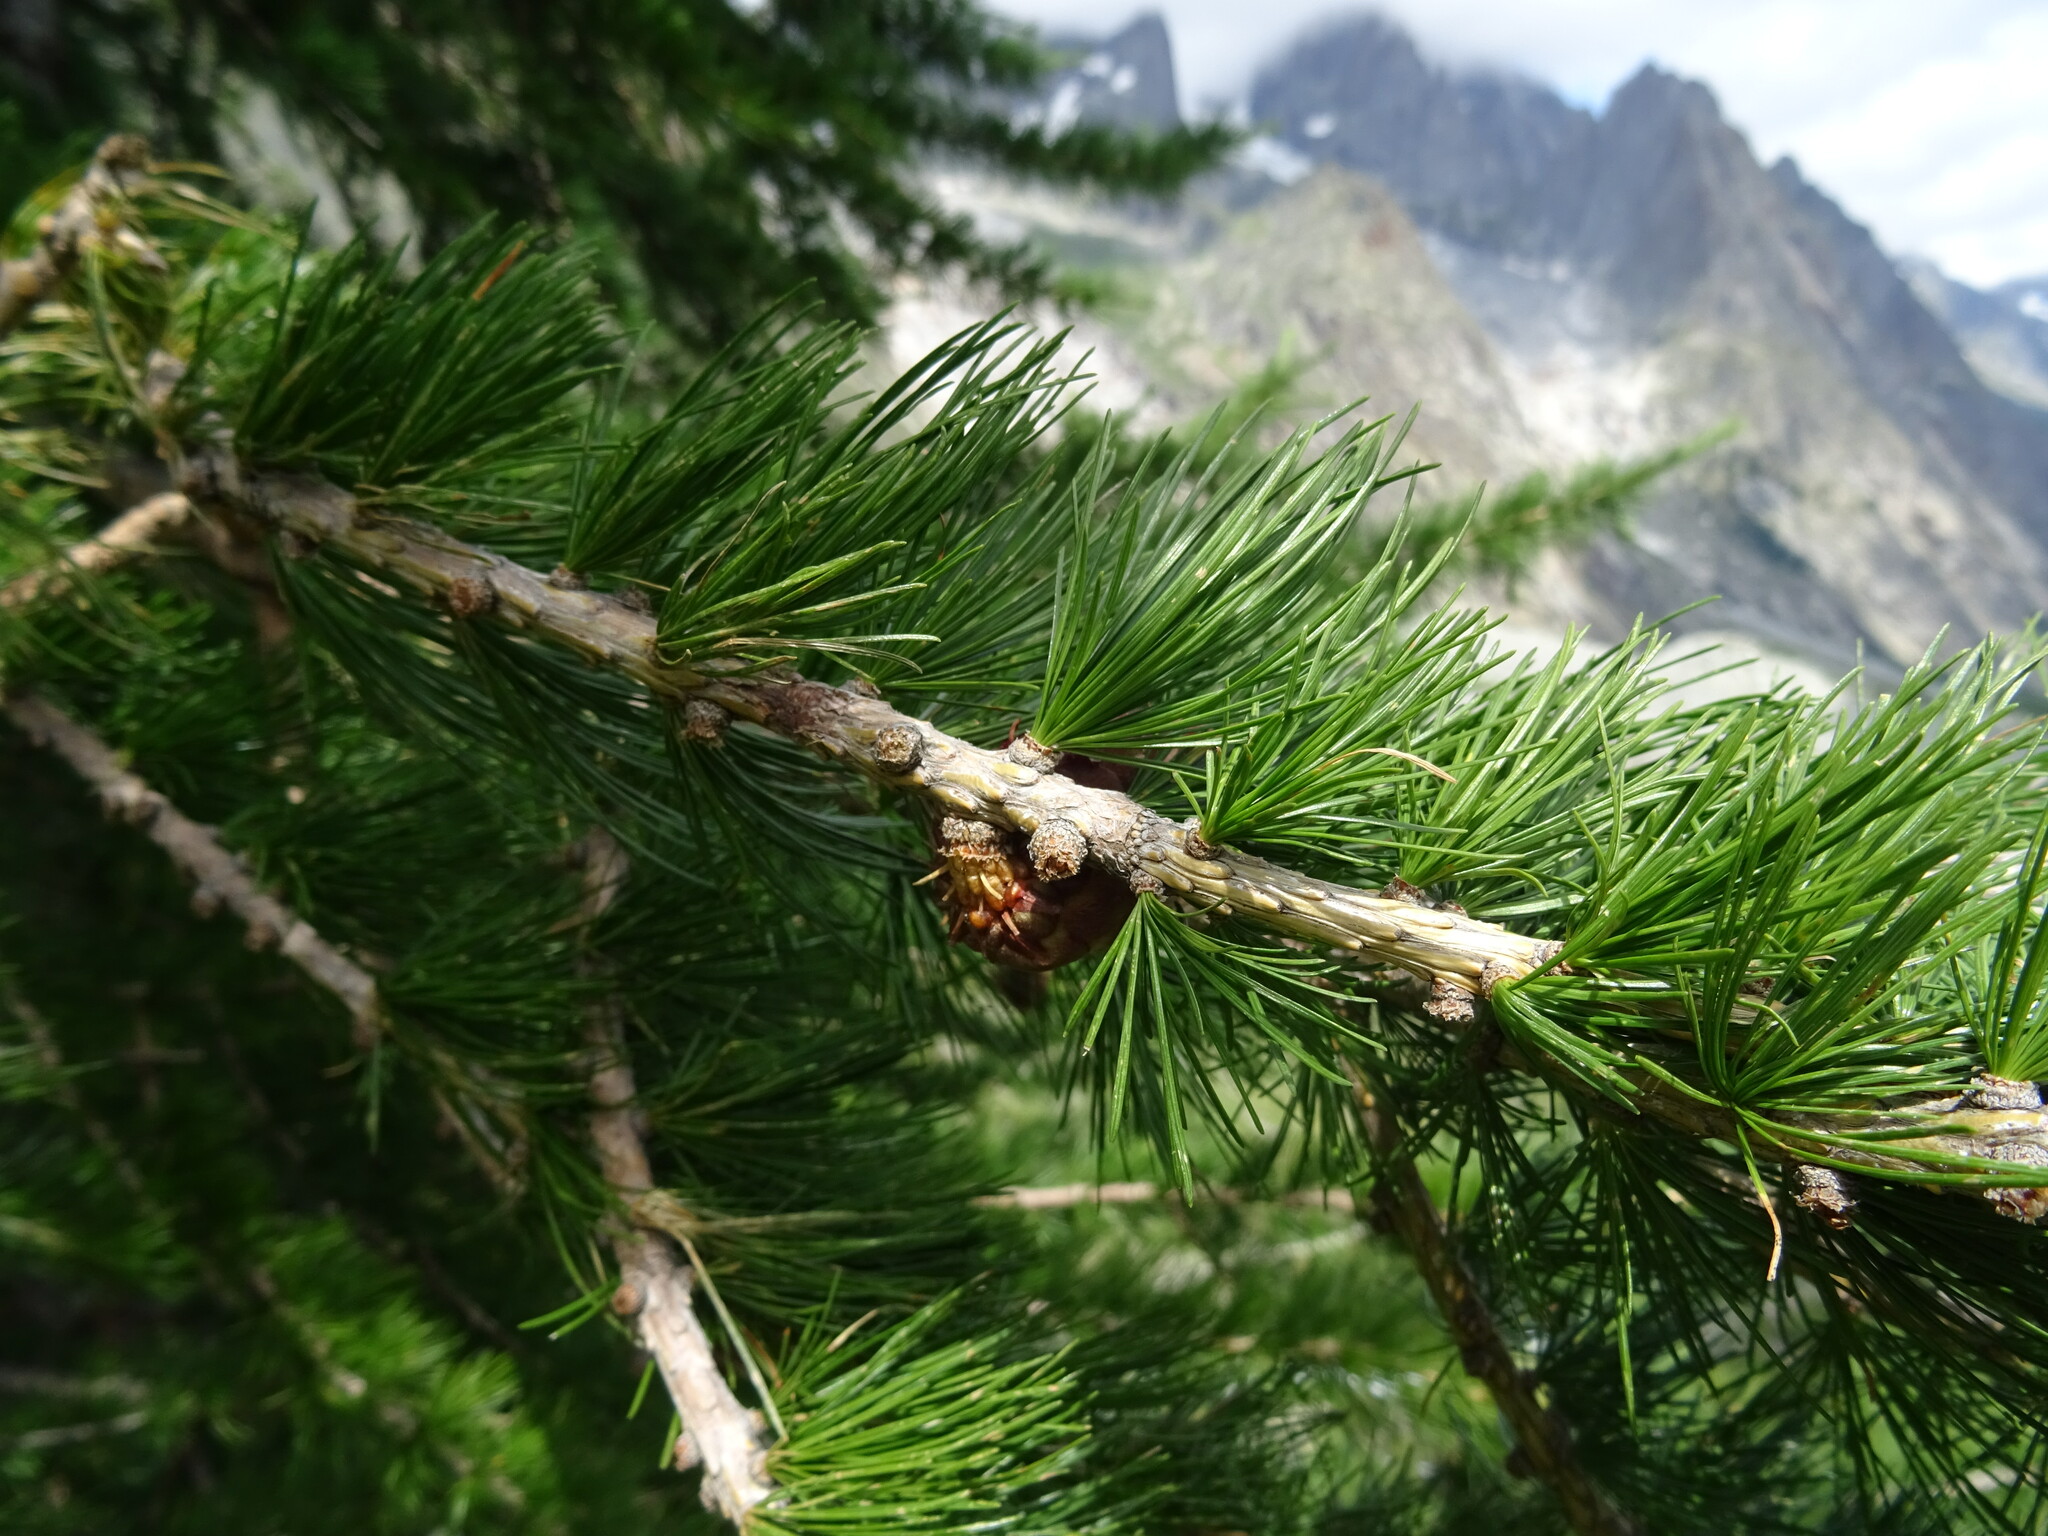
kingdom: Plantae
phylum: Tracheophyta
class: Pinopsida
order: Pinales
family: Pinaceae
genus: Larix
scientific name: Larix decidua
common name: European larch
